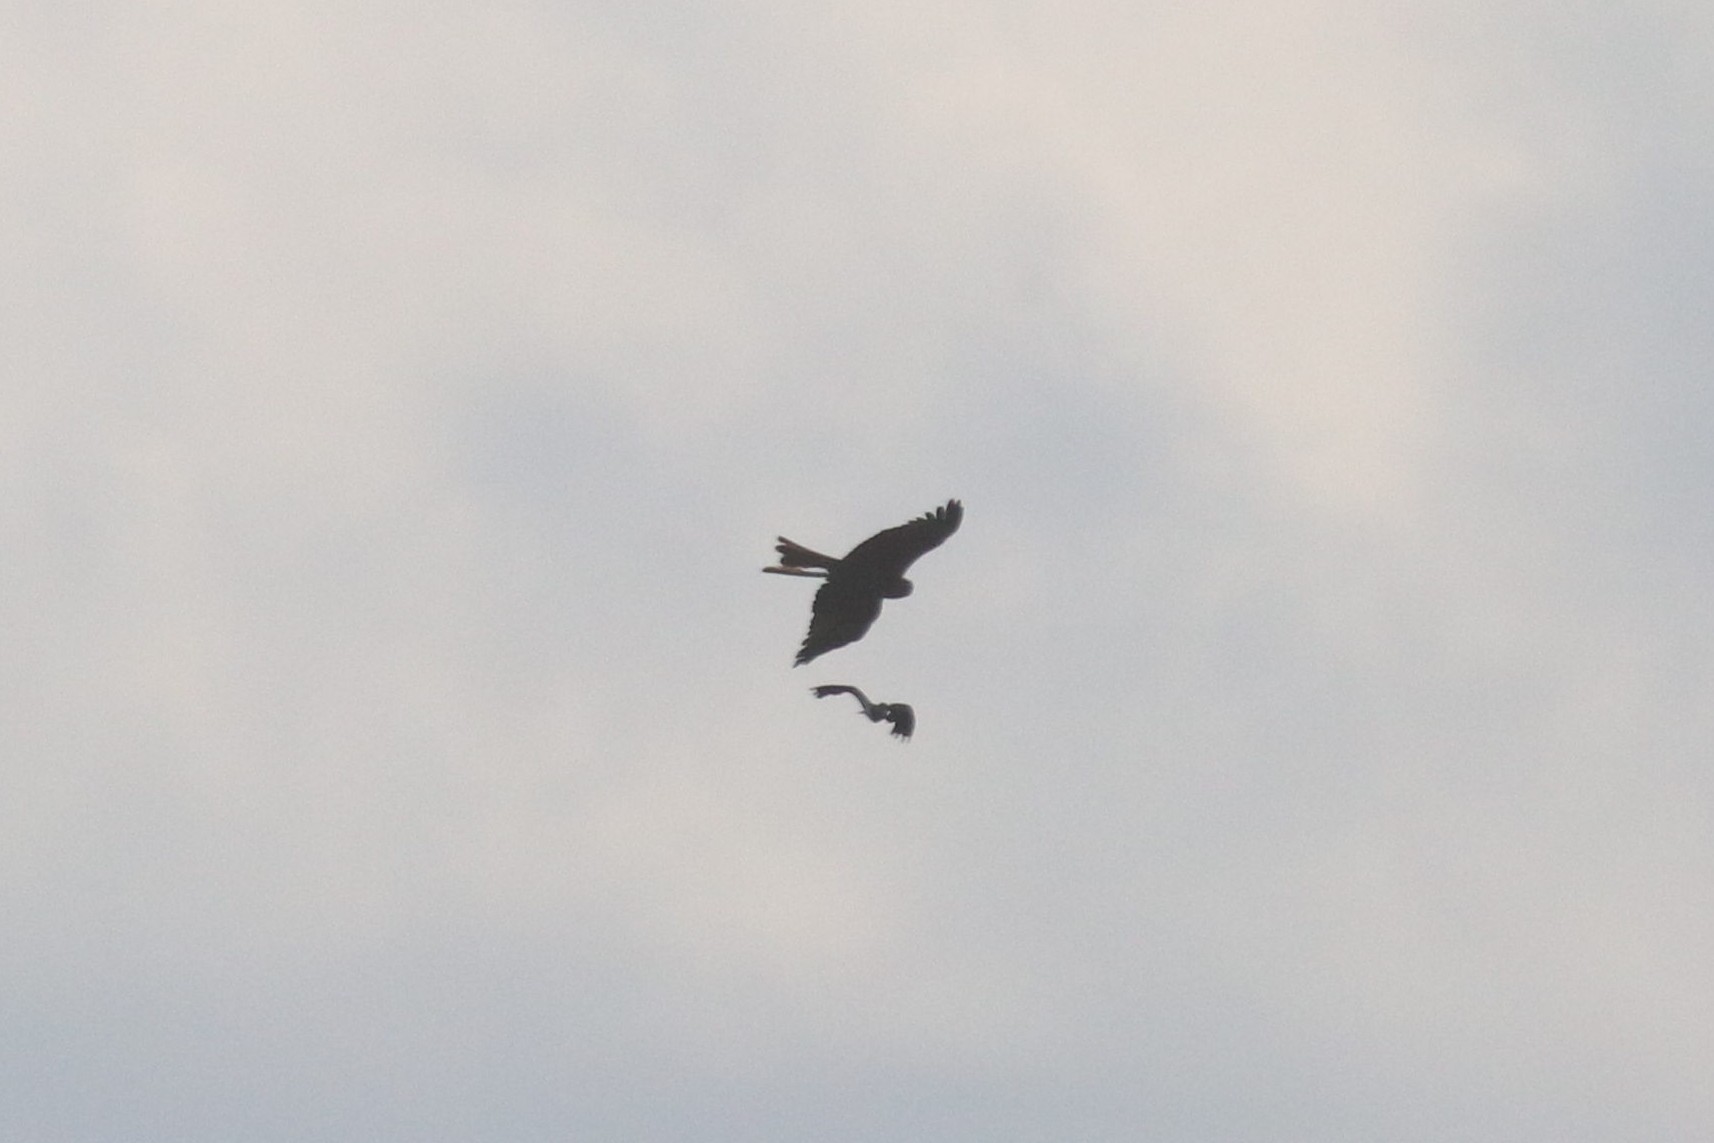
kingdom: Animalia
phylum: Chordata
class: Aves
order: Accipitriformes
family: Accipitridae
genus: Milvus
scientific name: Milvus migrans
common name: Black kite
